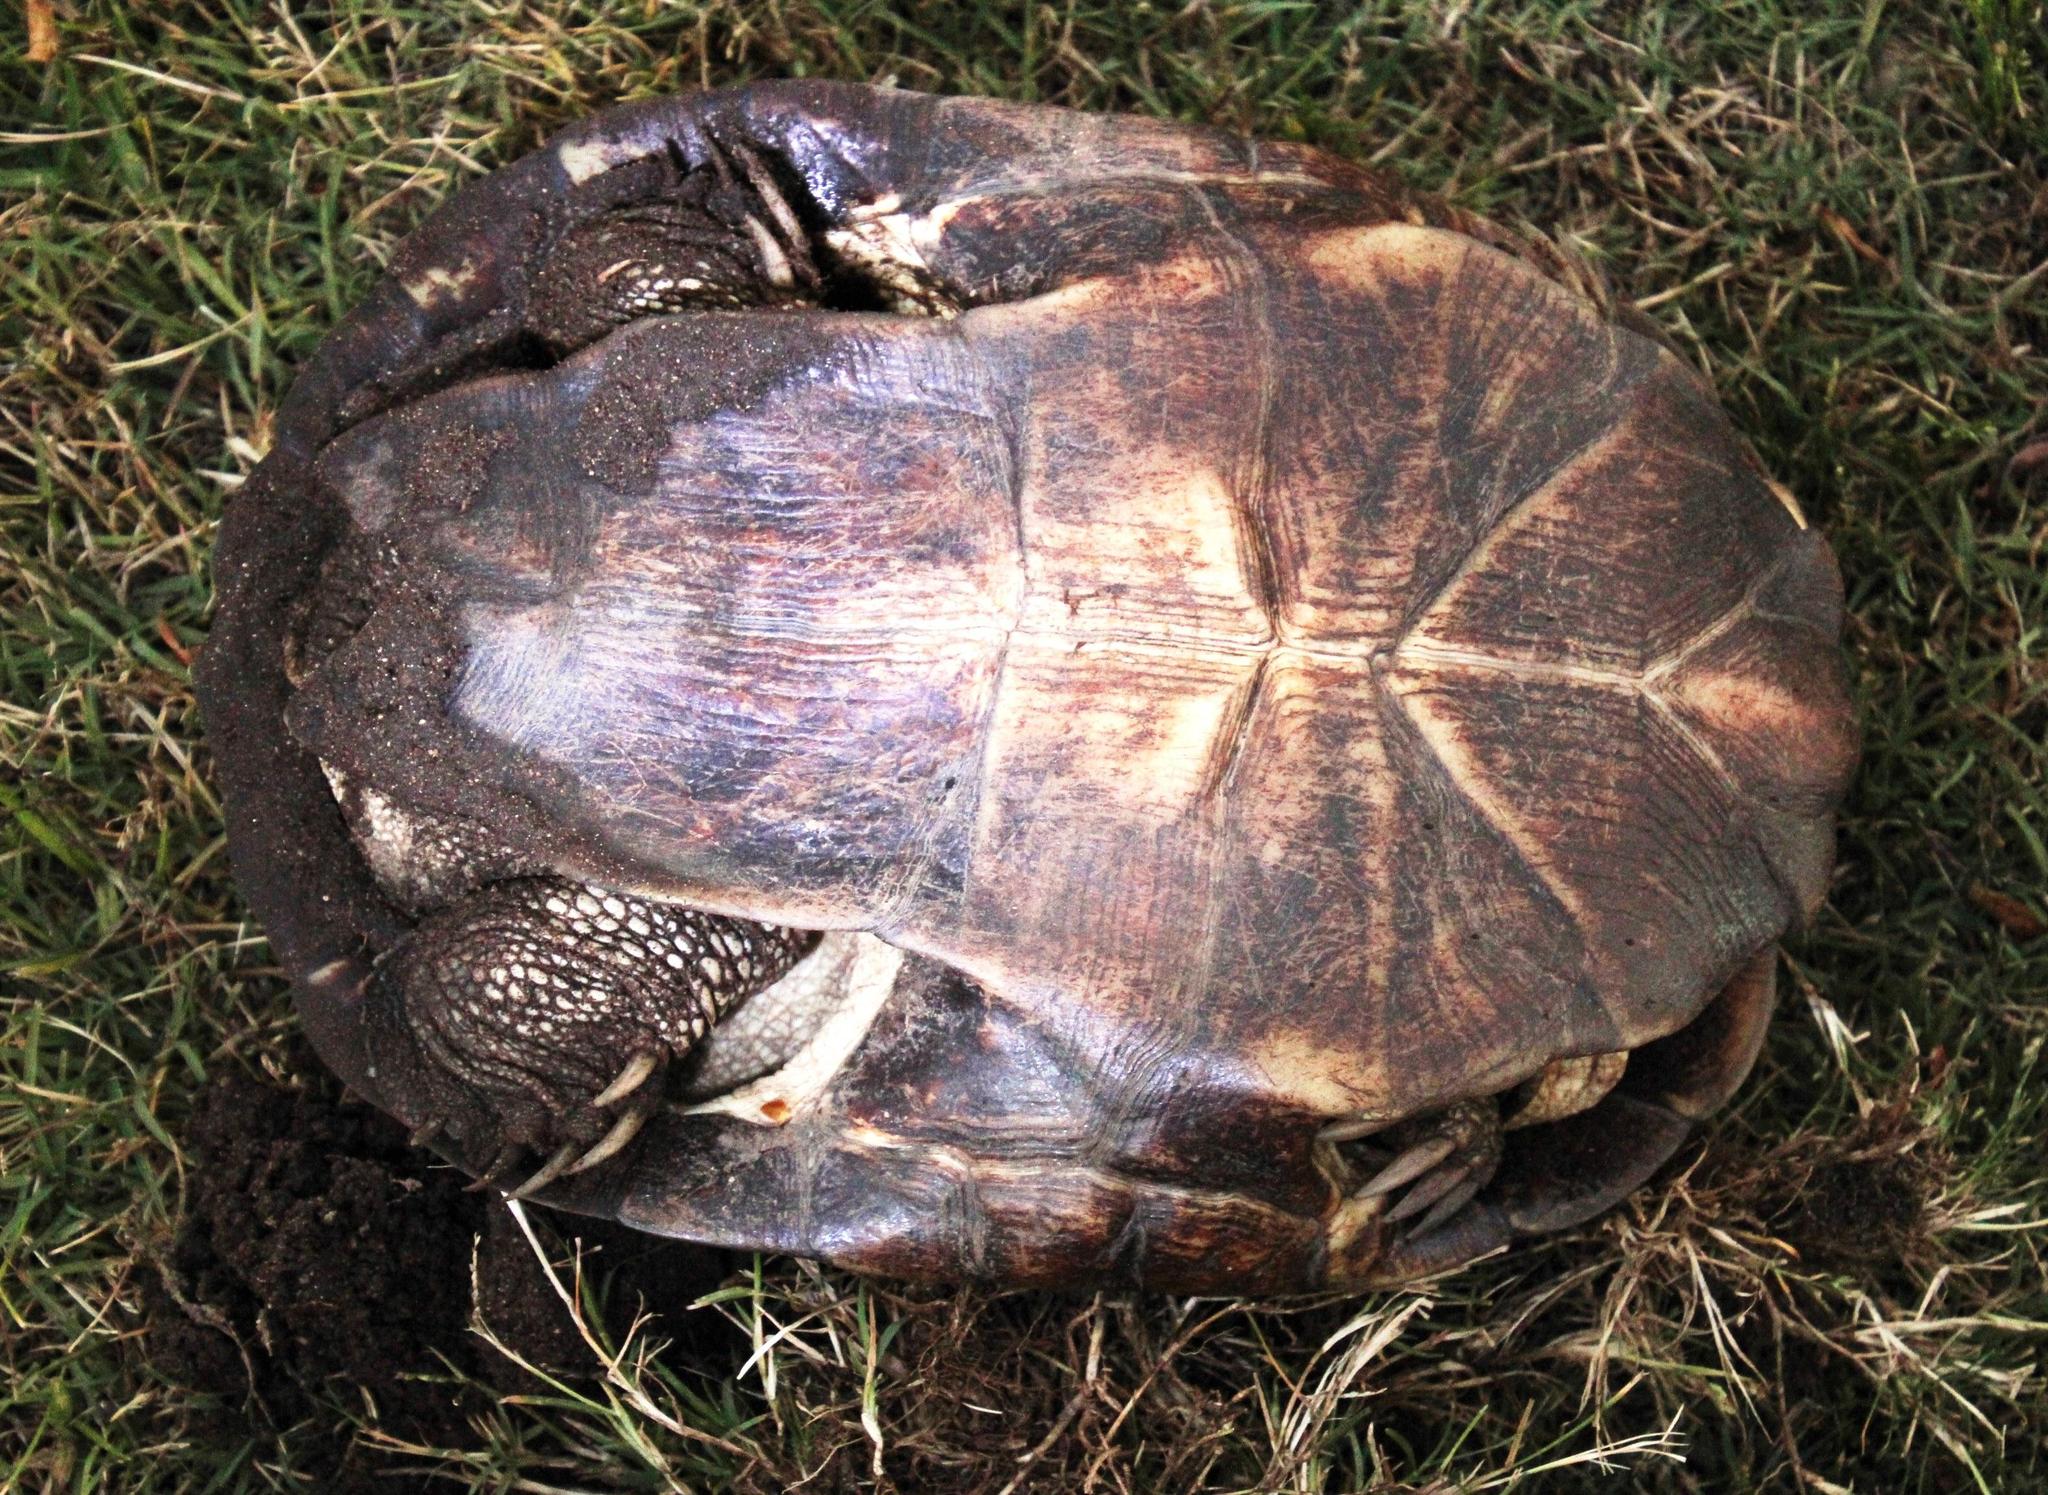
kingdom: Animalia
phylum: Chordata
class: Testudines
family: Pelomedusidae
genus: Pelomedusa
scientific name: Pelomedusa galeata
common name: South african helmeted terrapin
